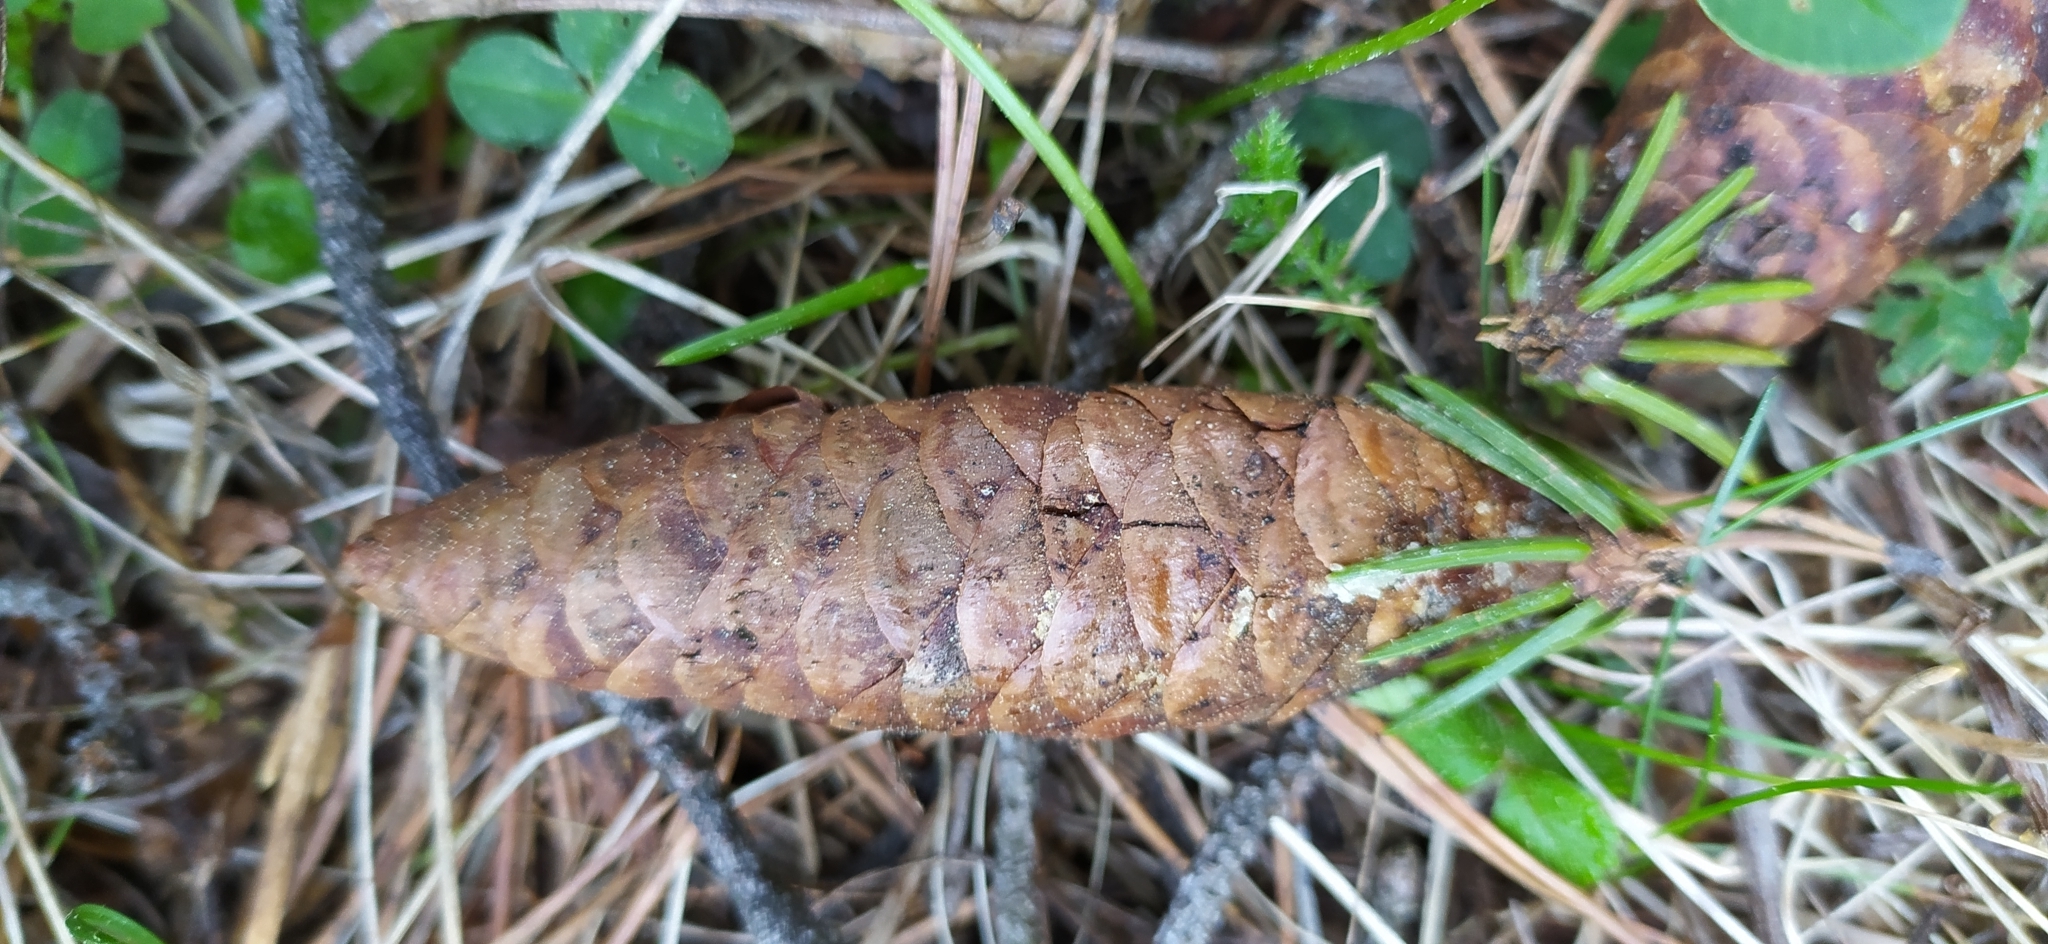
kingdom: Plantae
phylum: Tracheophyta
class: Pinopsida
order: Pinales
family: Pinaceae
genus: Picea
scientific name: Picea obovata
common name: Siberian spruce
